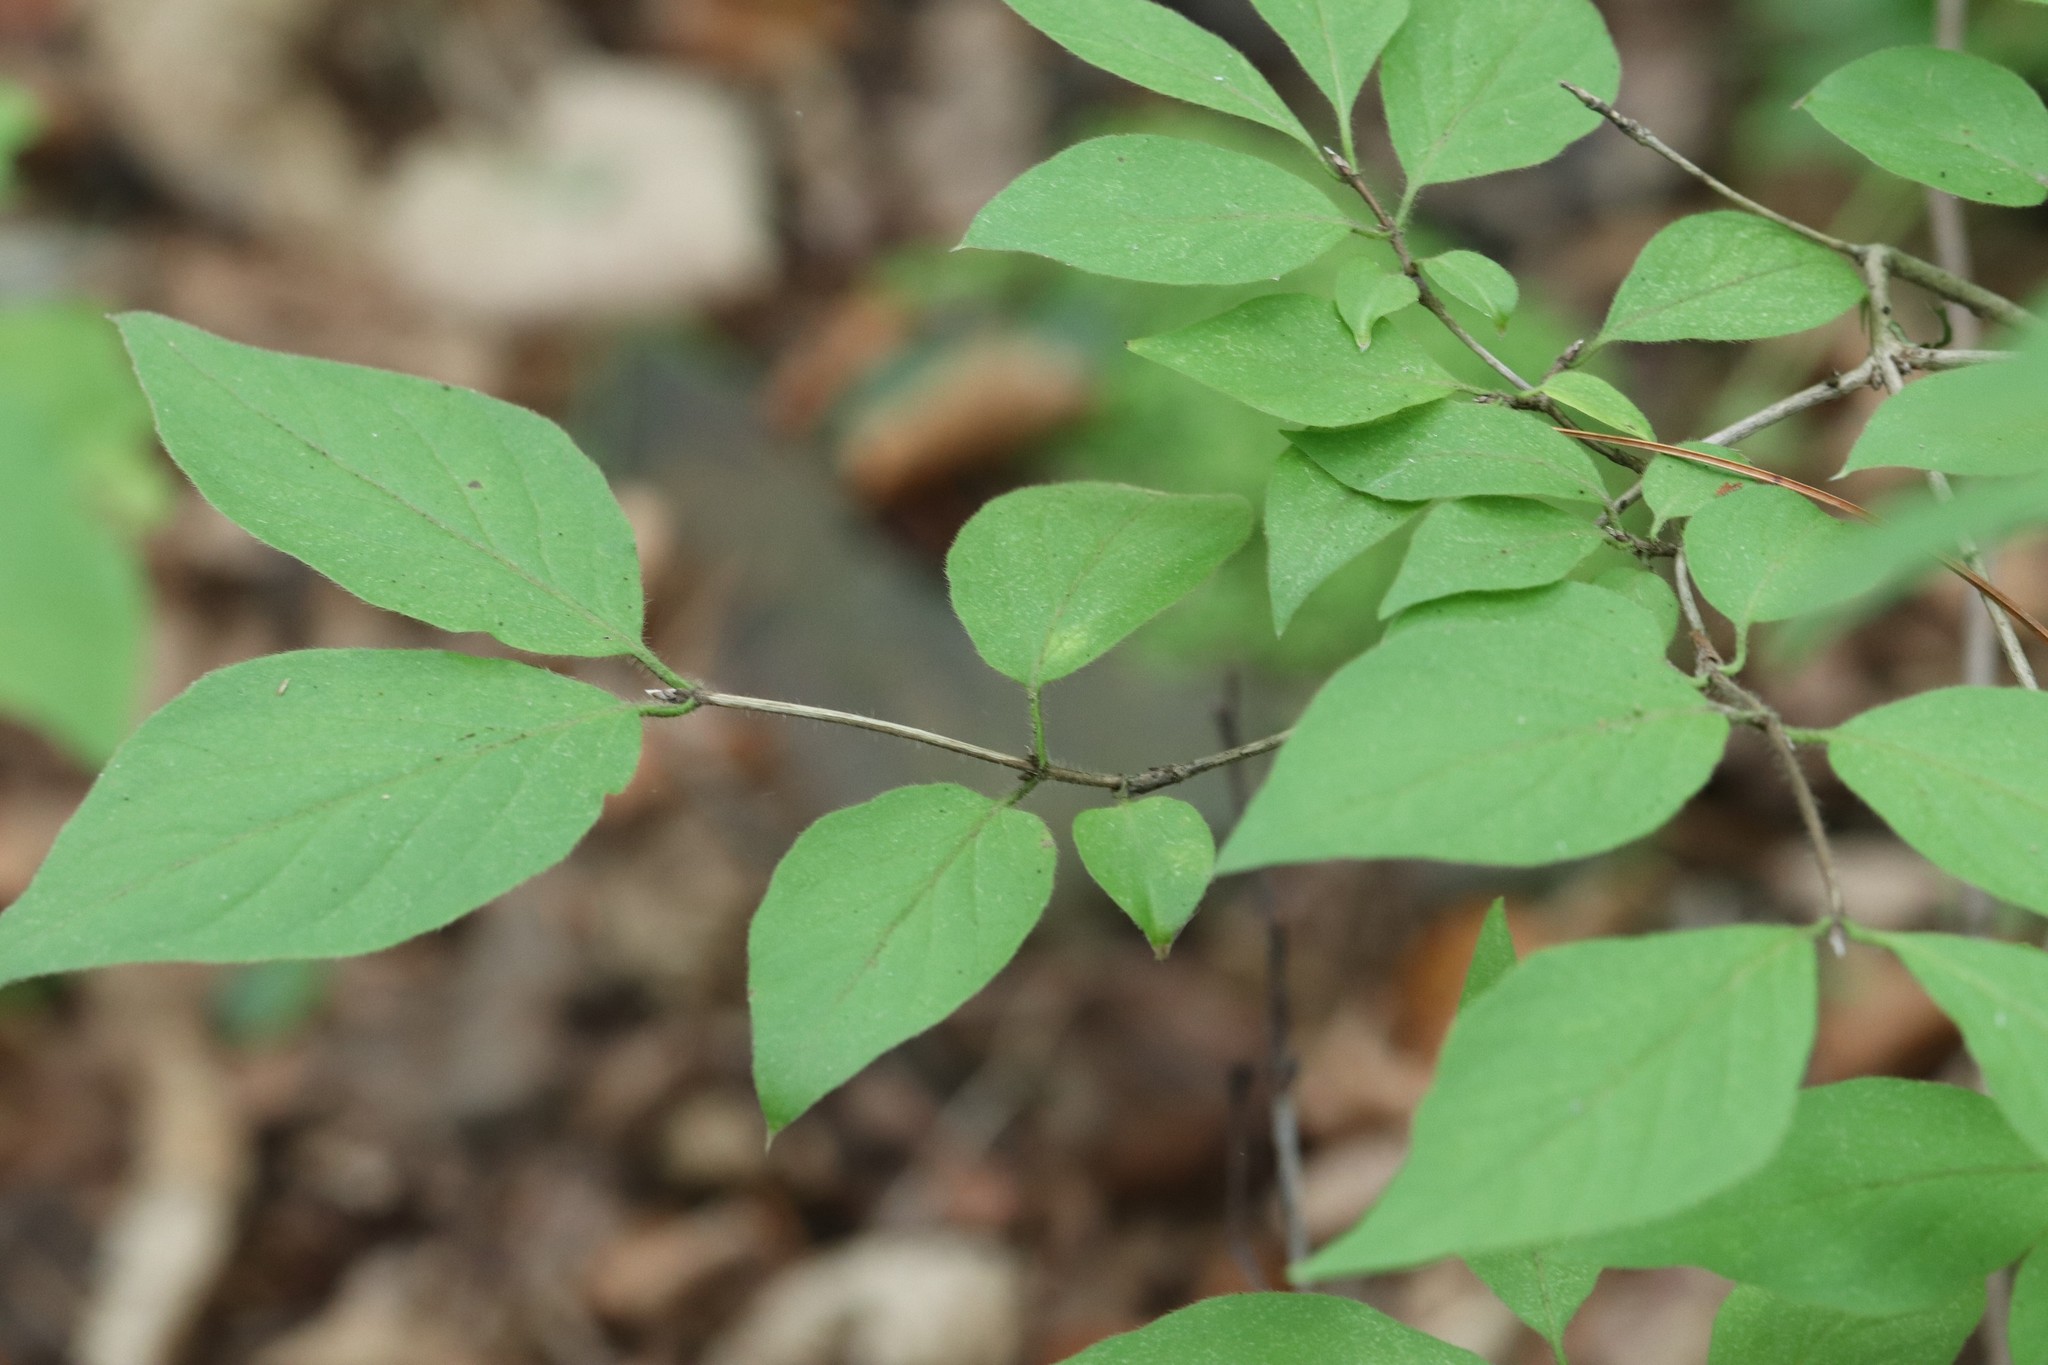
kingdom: Plantae
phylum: Tracheophyta
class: Magnoliopsida
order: Dipsacales
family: Caprifoliaceae
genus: Lonicera
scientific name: Lonicera chrysantha
